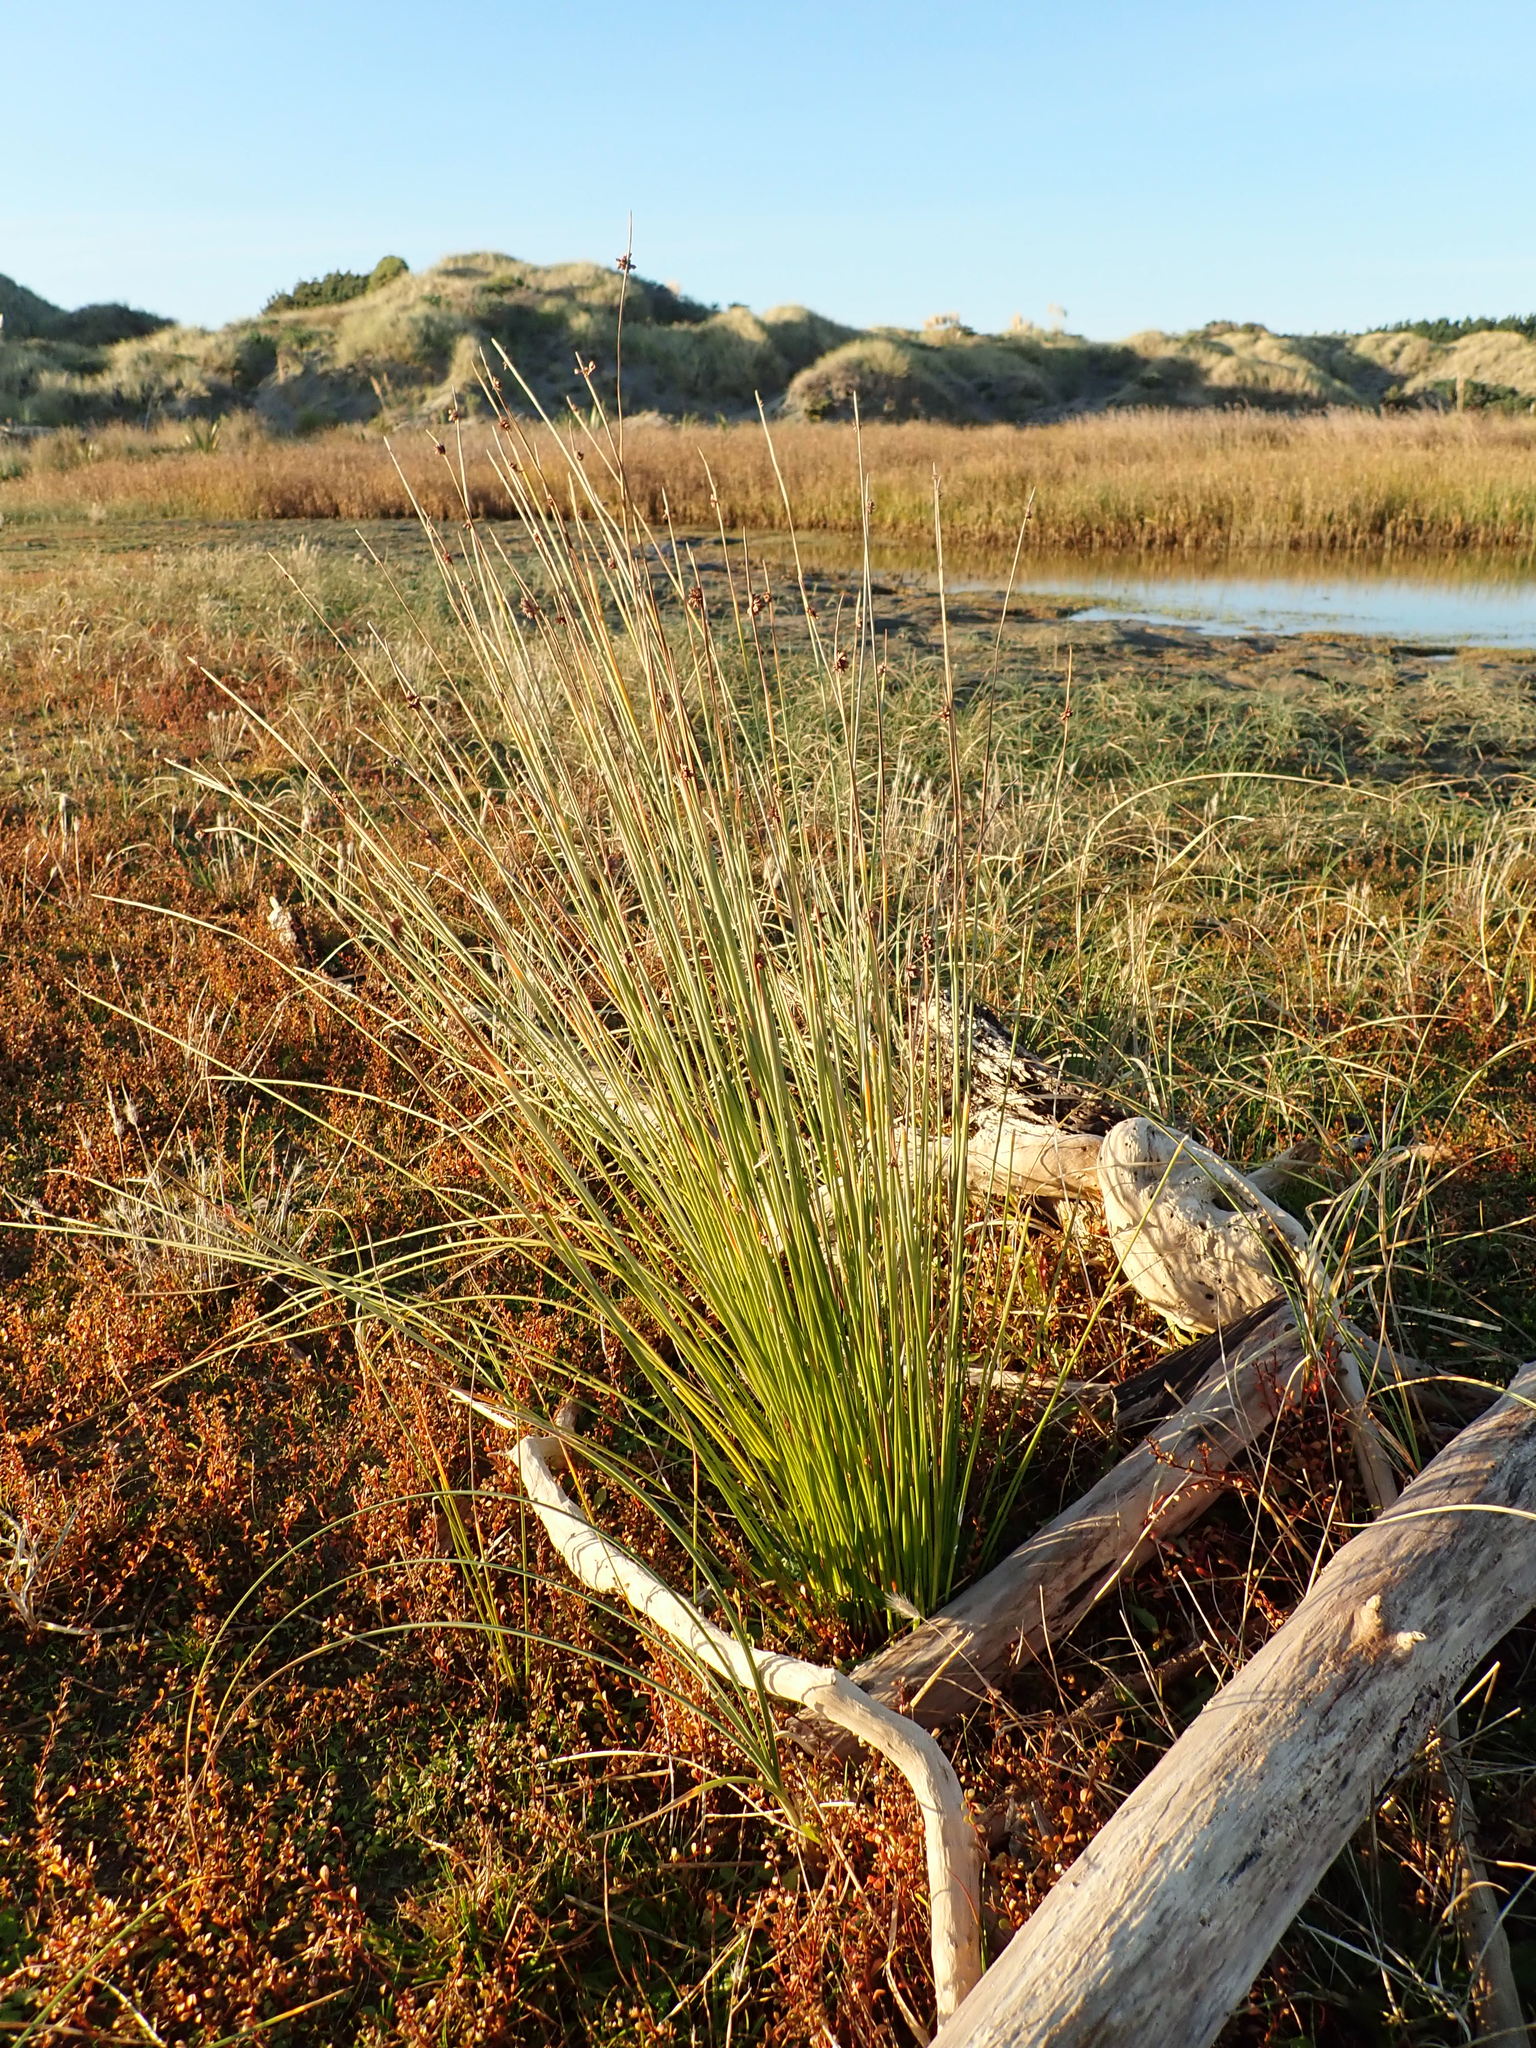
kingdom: Plantae
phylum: Tracheophyta
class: Liliopsida
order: Poales
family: Cyperaceae
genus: Ficinia
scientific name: Ficinia nodosa
